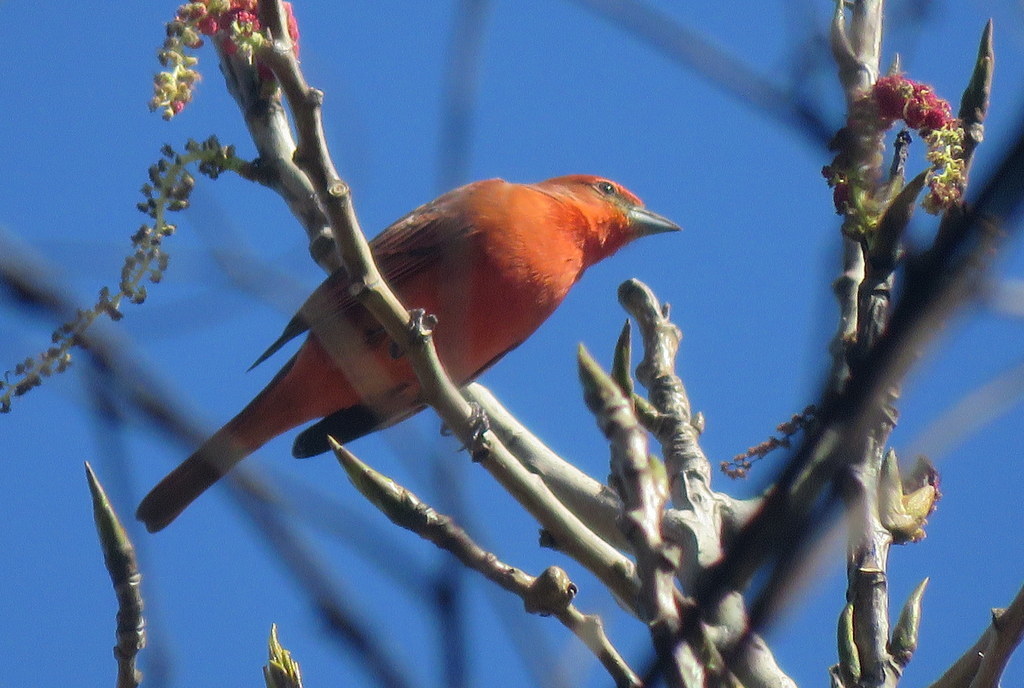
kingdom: Animalia
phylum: Chordata
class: Aves
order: Passeriformes
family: Cardinalidae
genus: Piranga
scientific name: Piranga flava
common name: Red tanager
